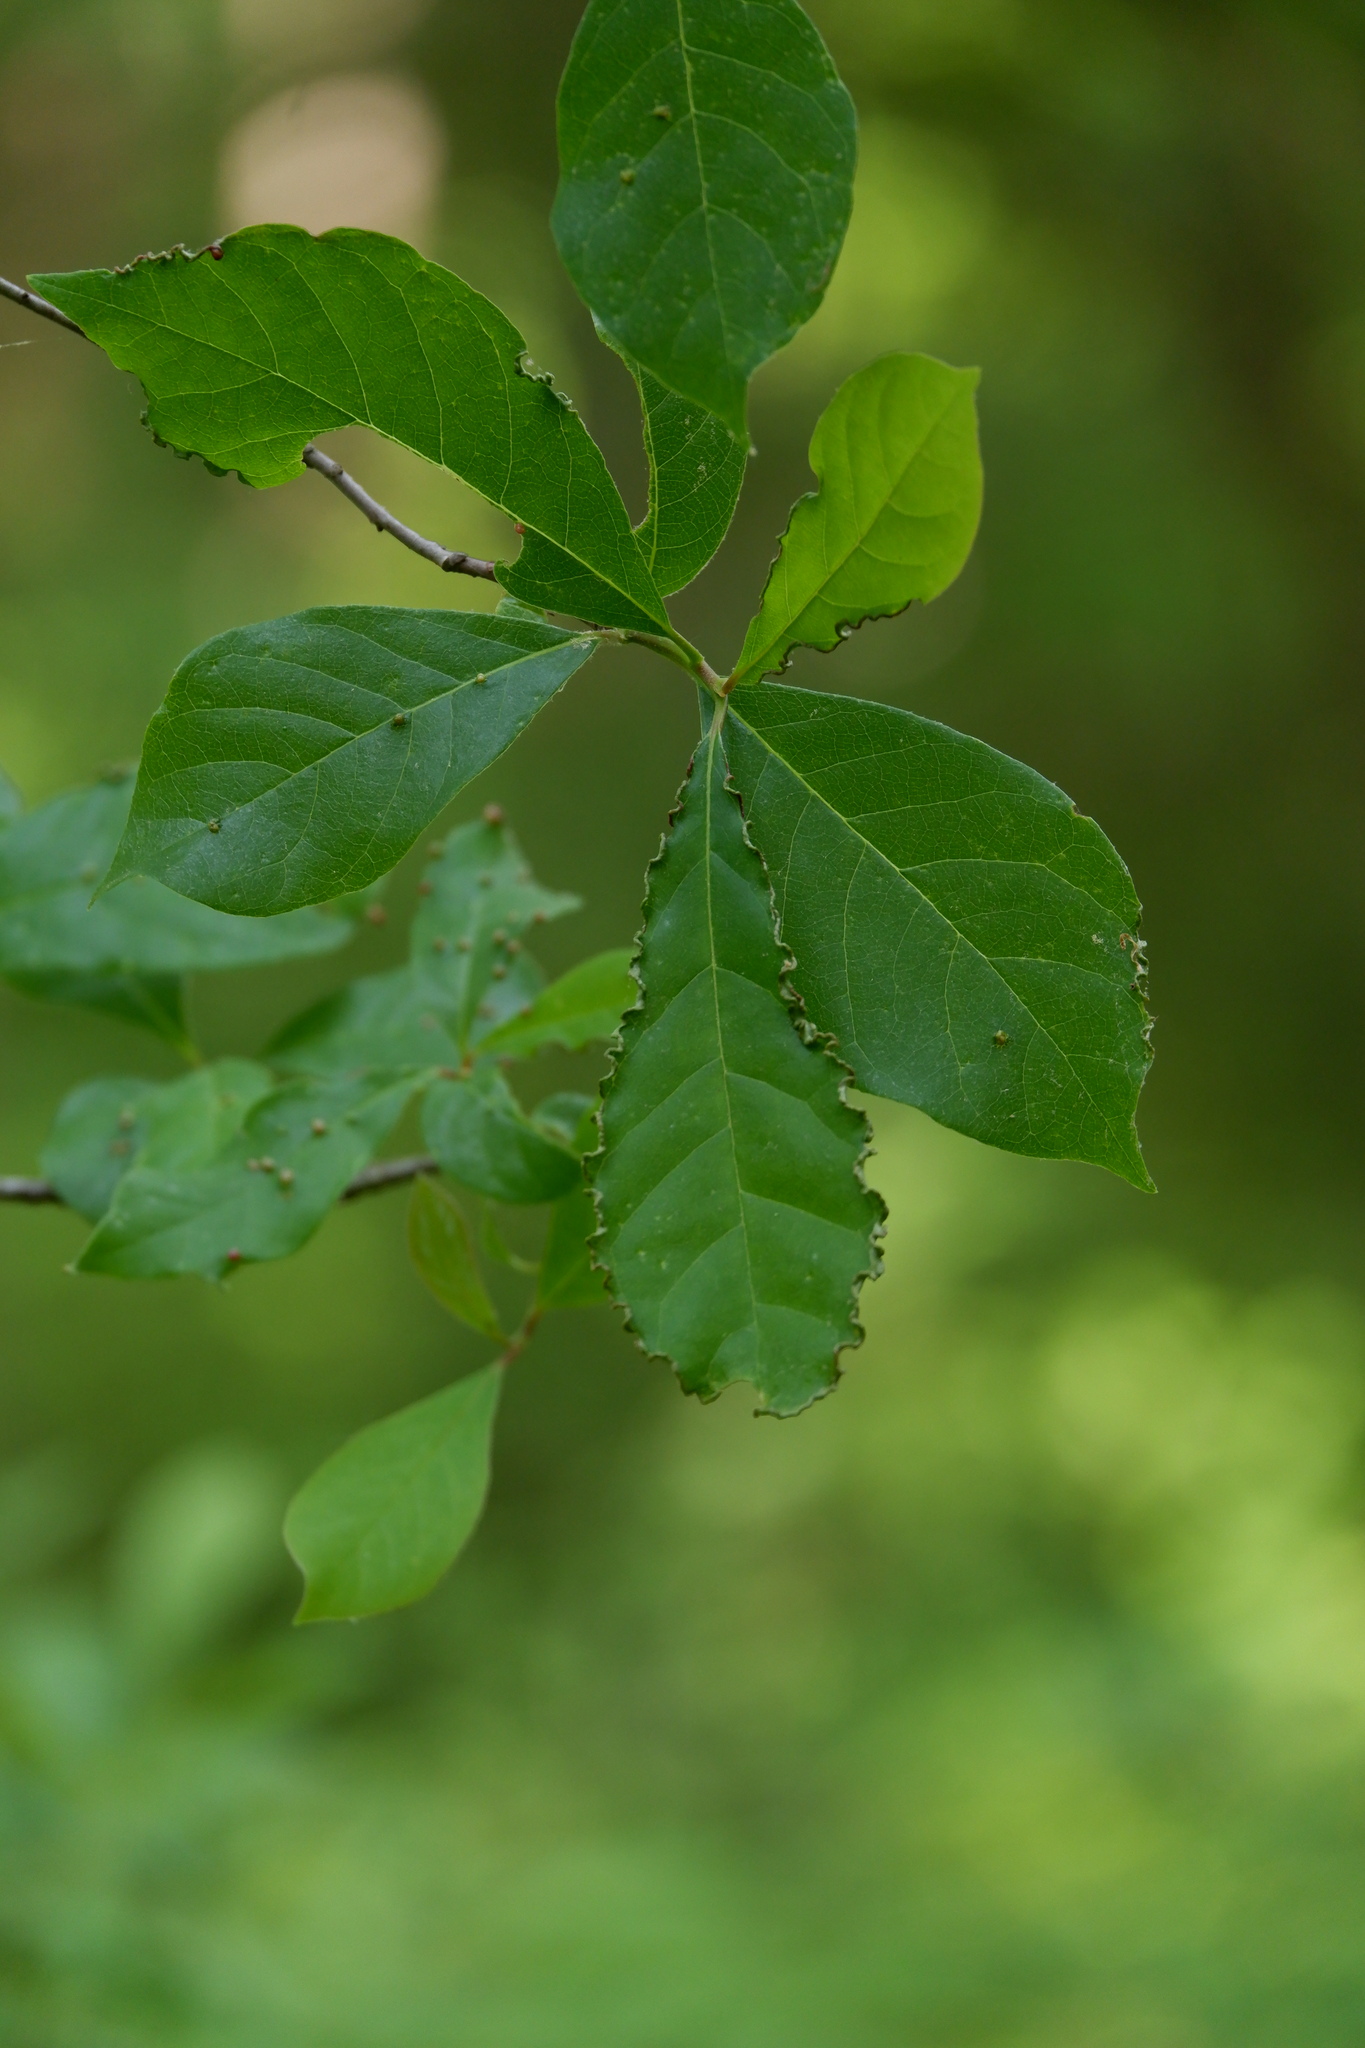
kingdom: Animalia
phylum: Arthropoda
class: Arachnida
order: Trombidiformes
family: Eriophyidae
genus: Aceria
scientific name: Aceria
